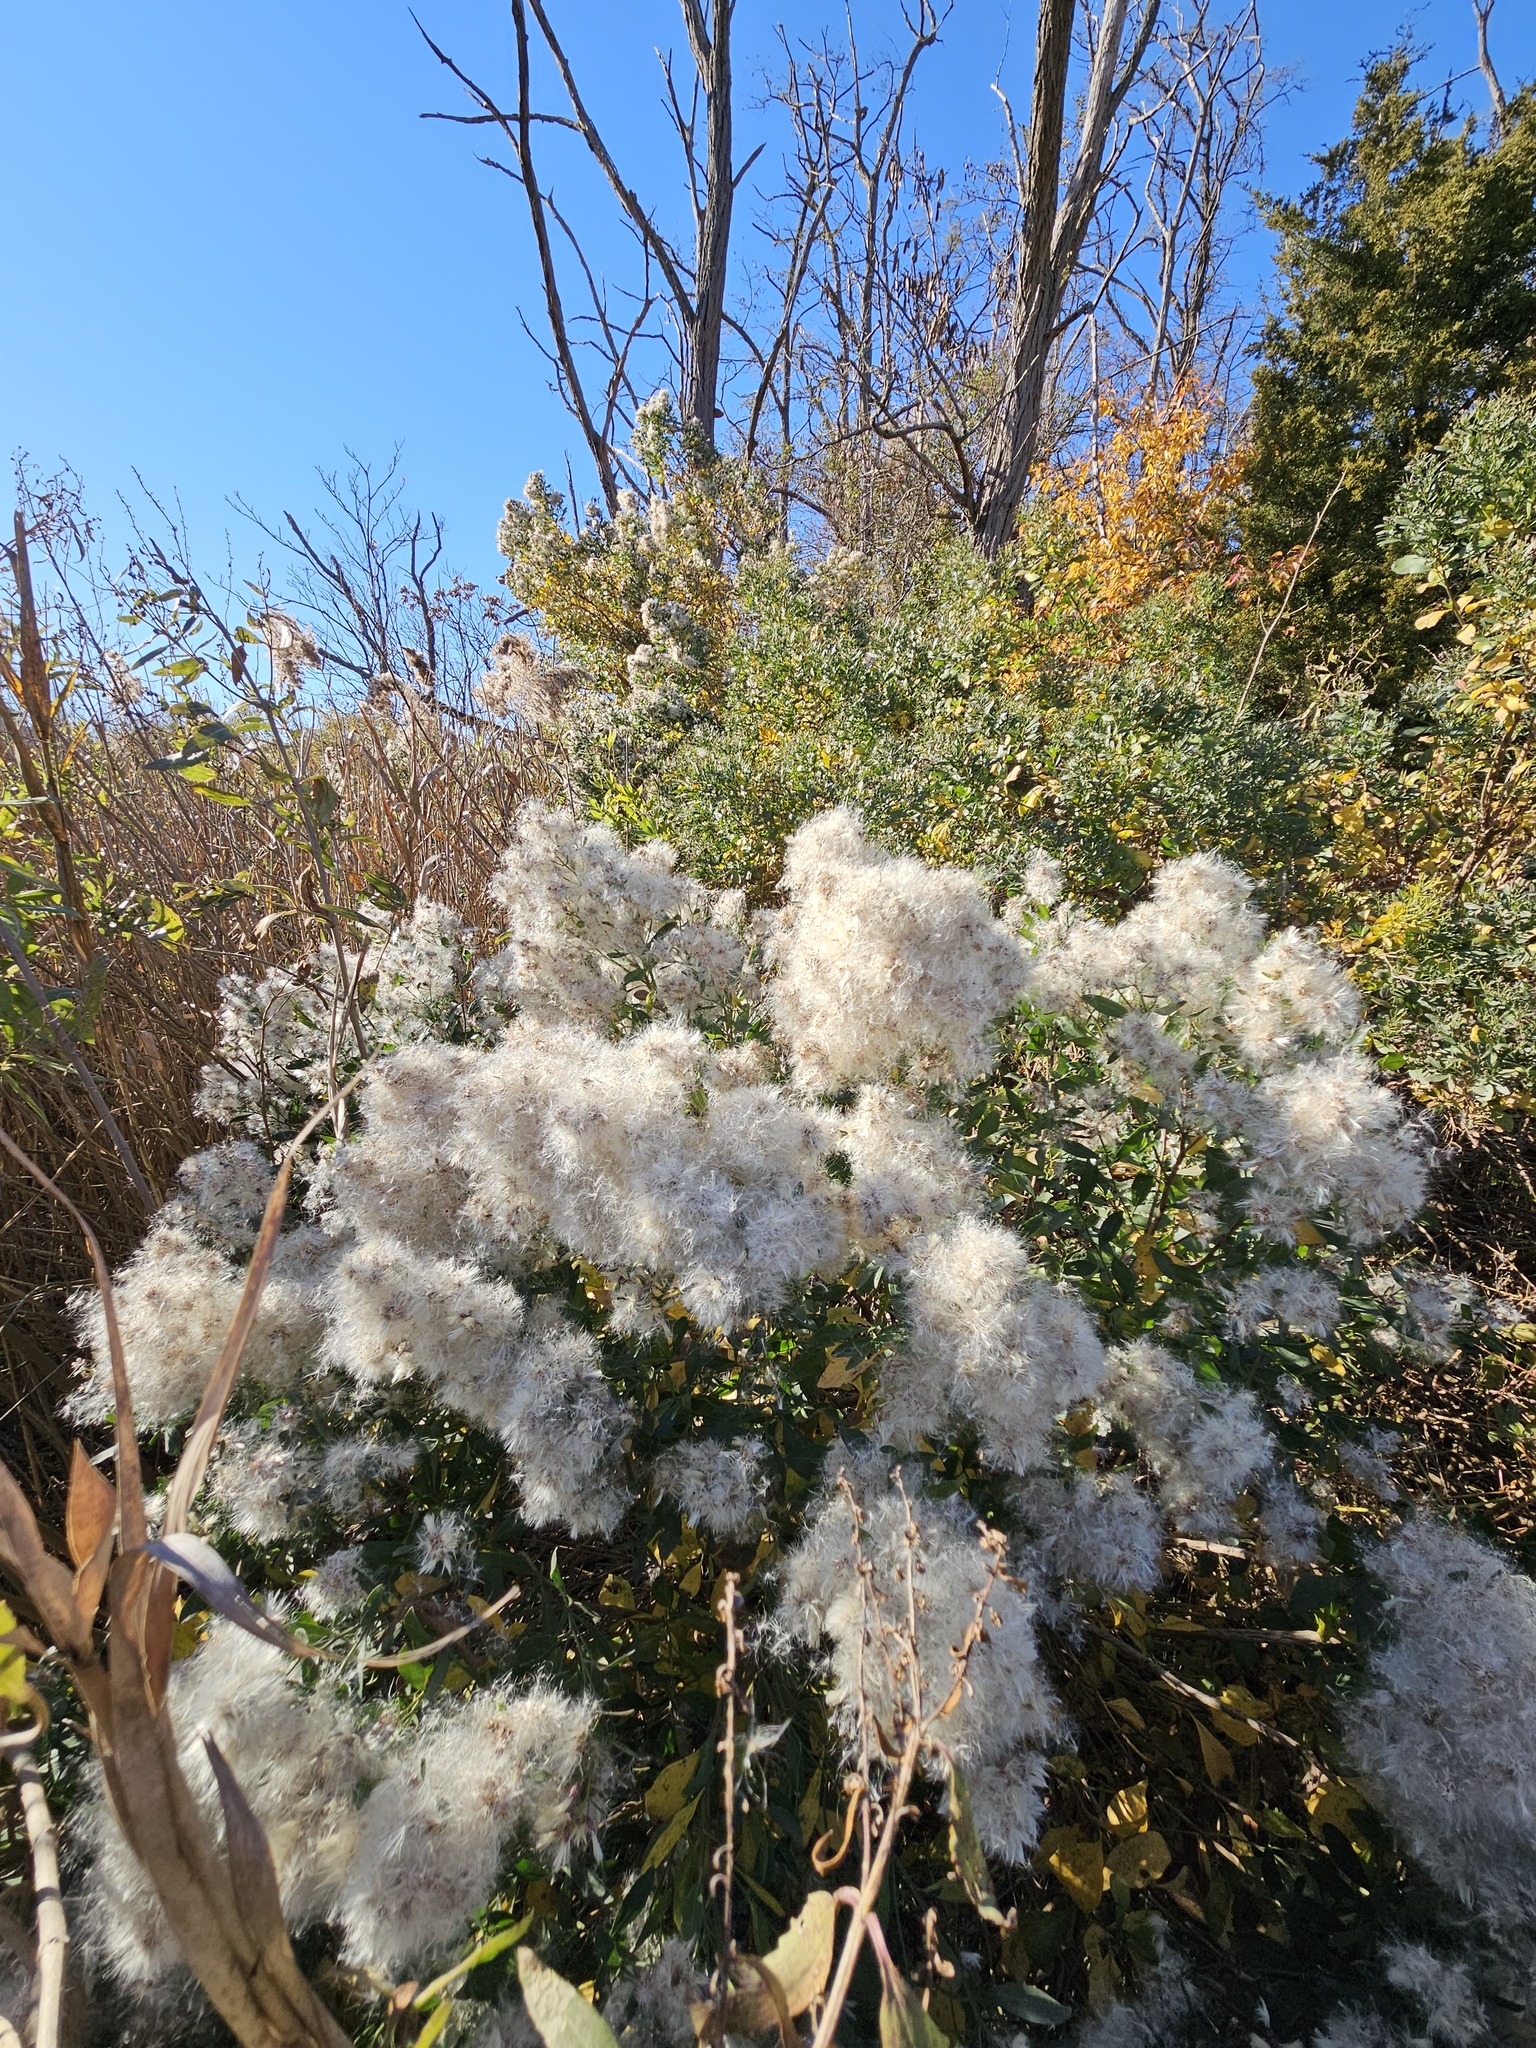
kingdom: Plantae
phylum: Tracheophyta
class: Magnoliopsida
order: Asterales
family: Asteraceae
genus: Baccharis
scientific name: Baccharis halimifolia
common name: Eastern baccharis
